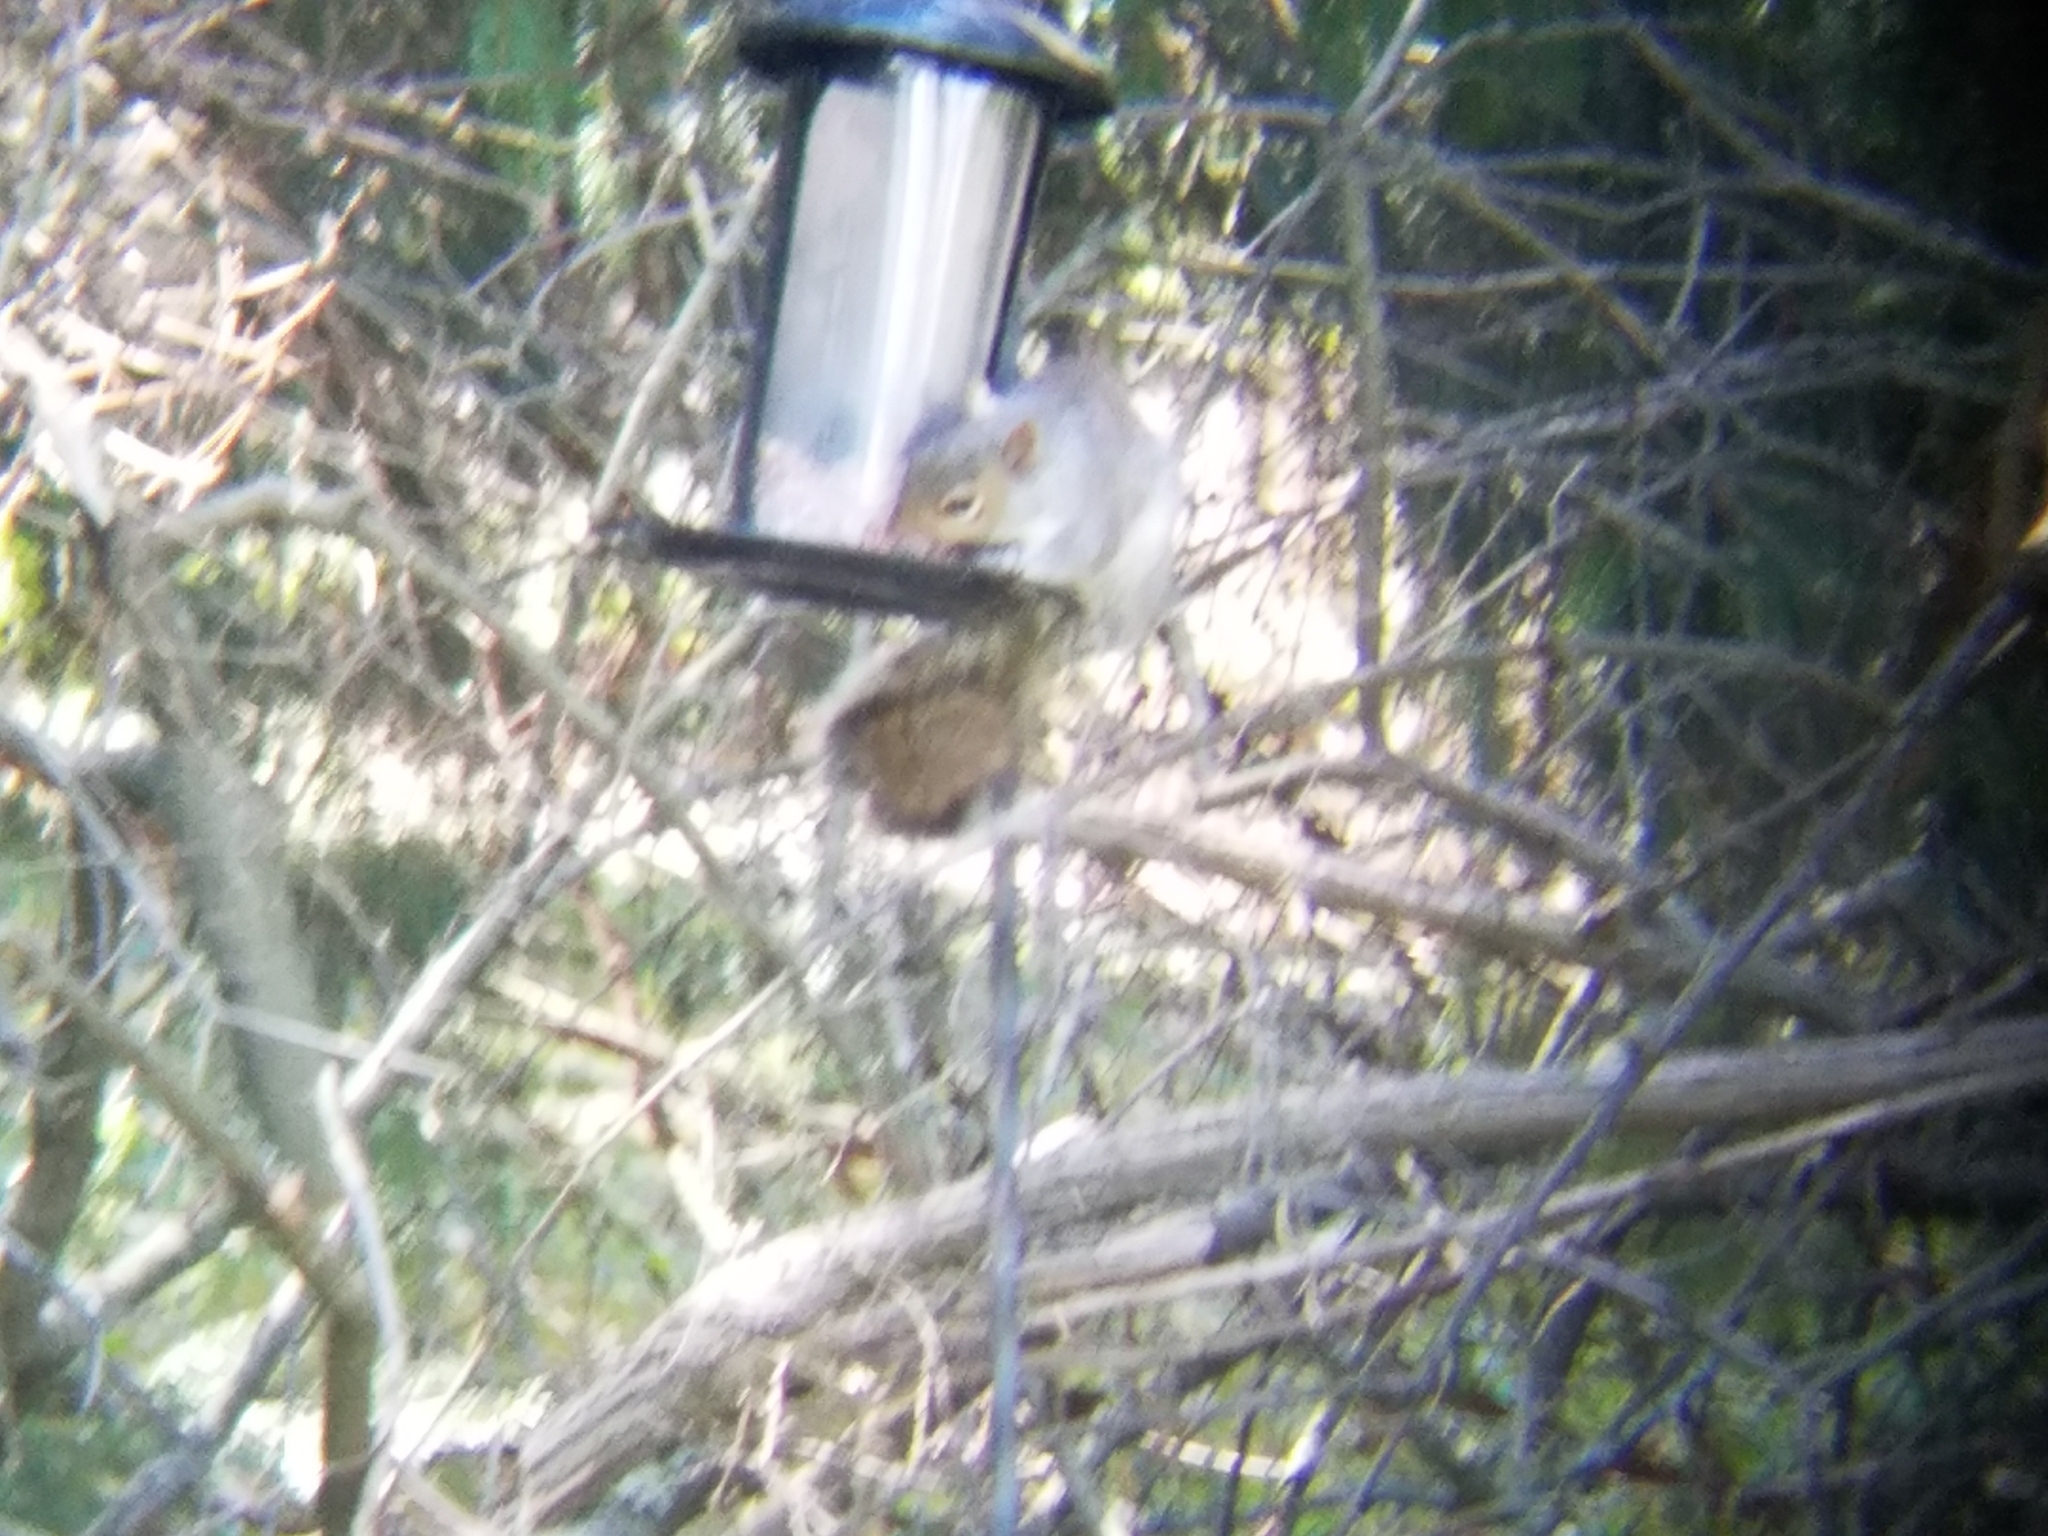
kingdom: Animalia
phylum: Chordata
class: Mammalia
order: Rodentia
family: Sciuridae
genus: Sciurus
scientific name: Sciurus carolinensis
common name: Eastern gray squirrel
